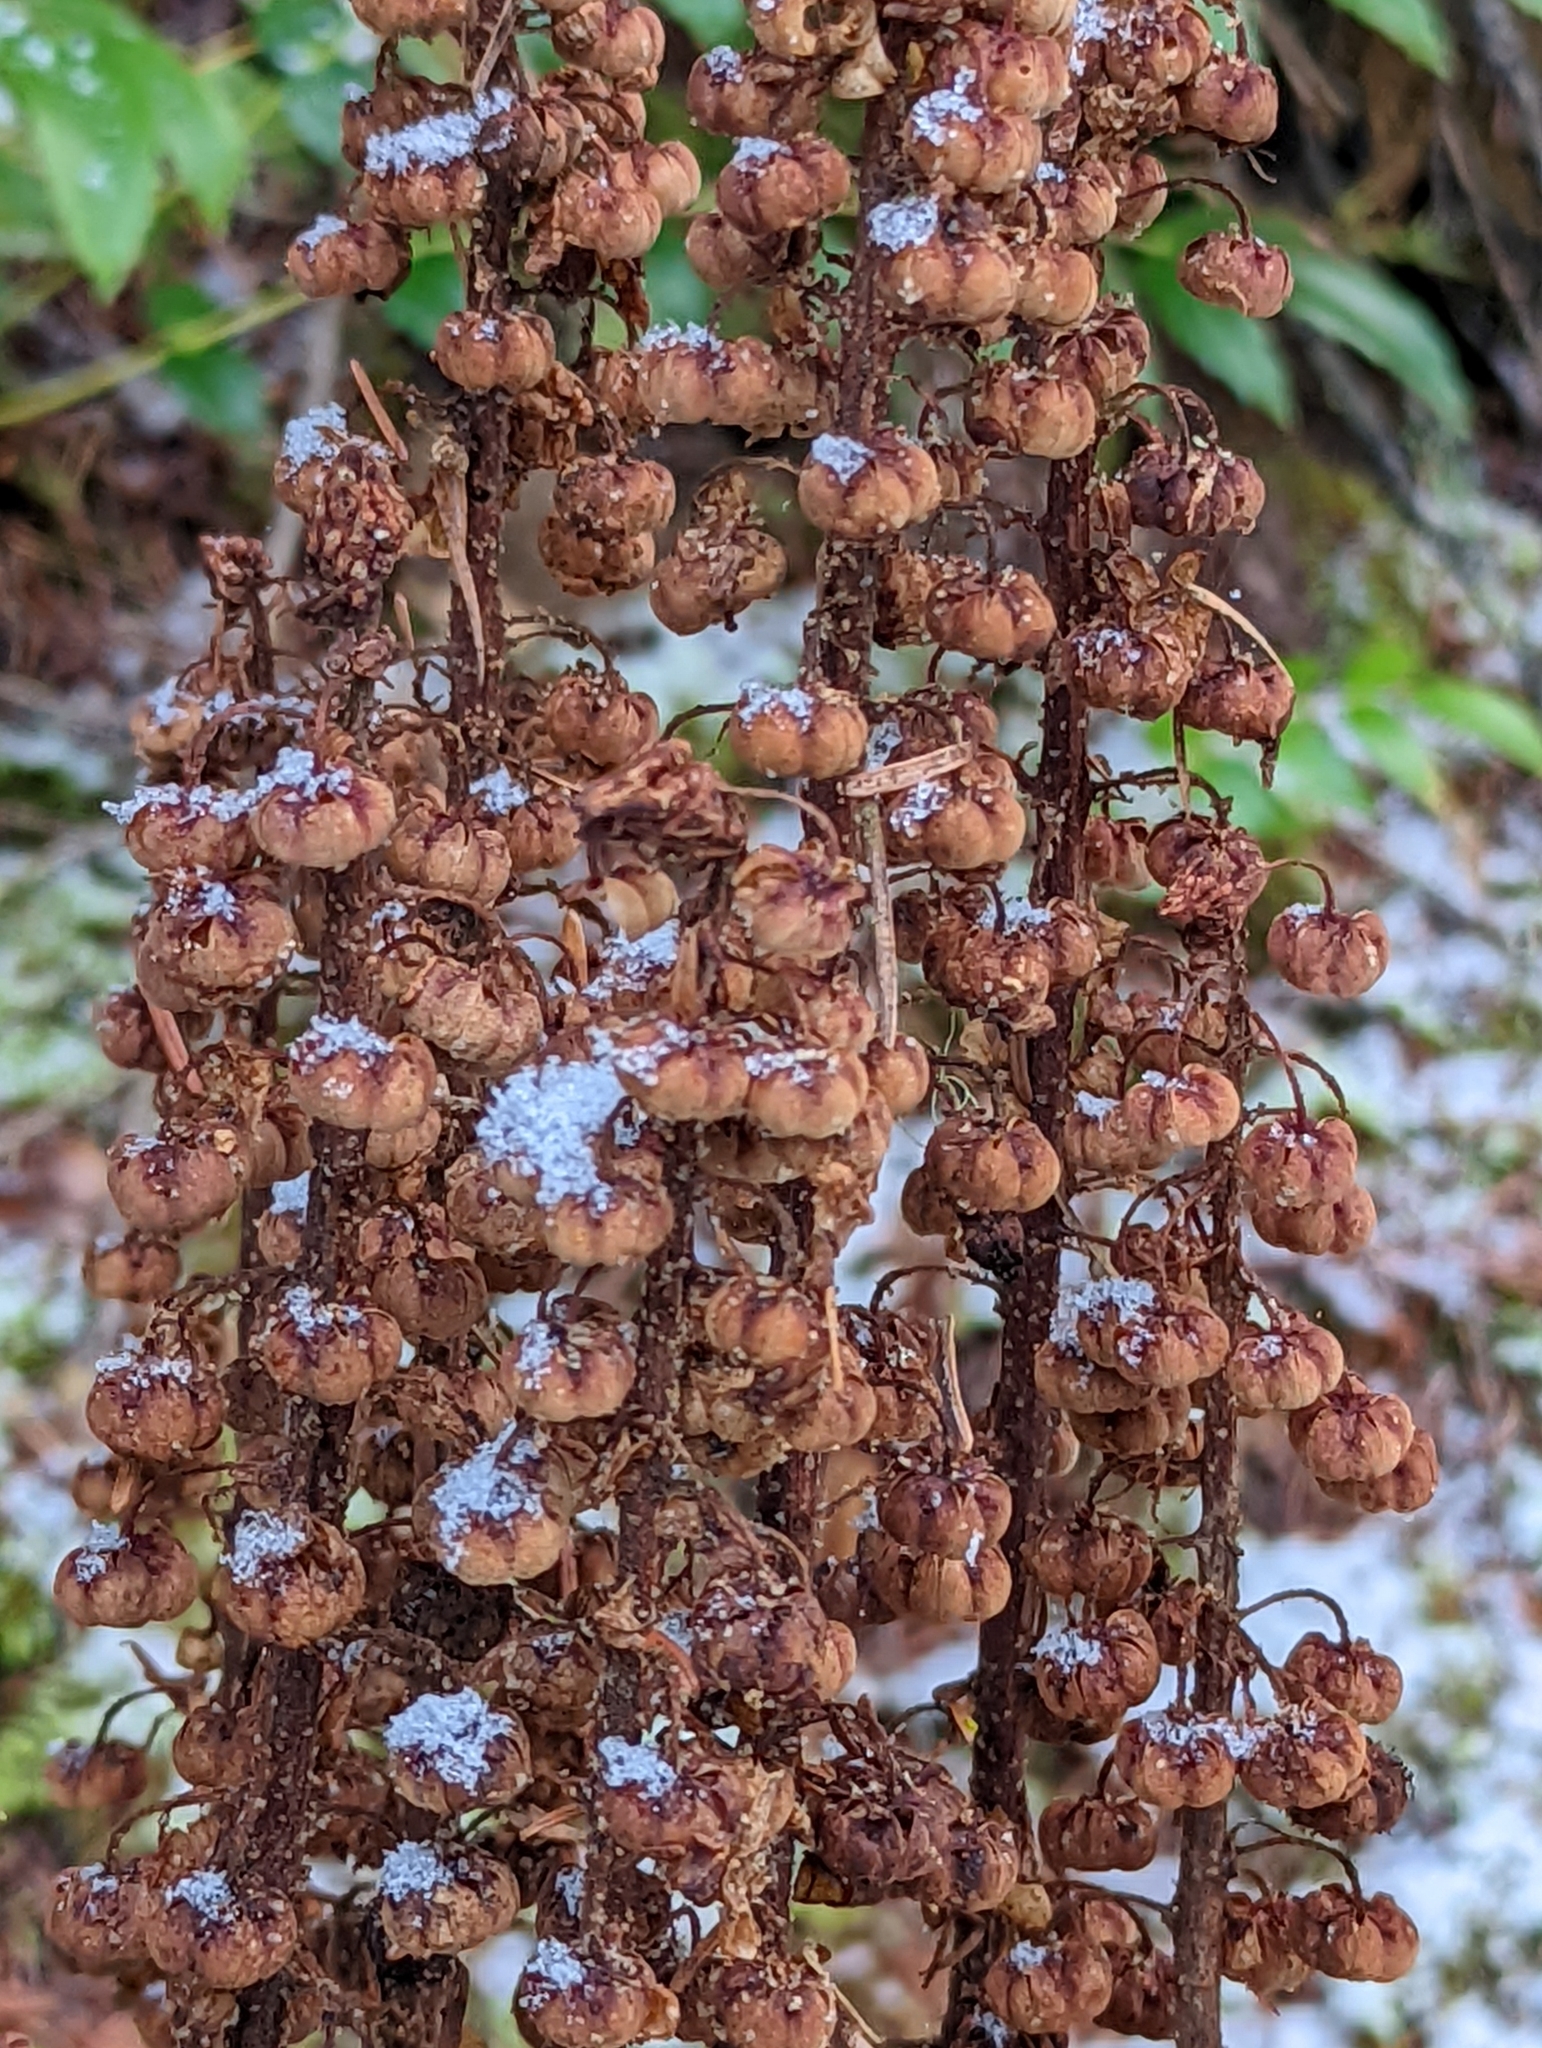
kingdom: Plantae
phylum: Tracheophyta
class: Magnoliopsida
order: Ericales
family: Ericaceae
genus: Pterospora
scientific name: Pterospora andromedea
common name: Giant bird's-nest
